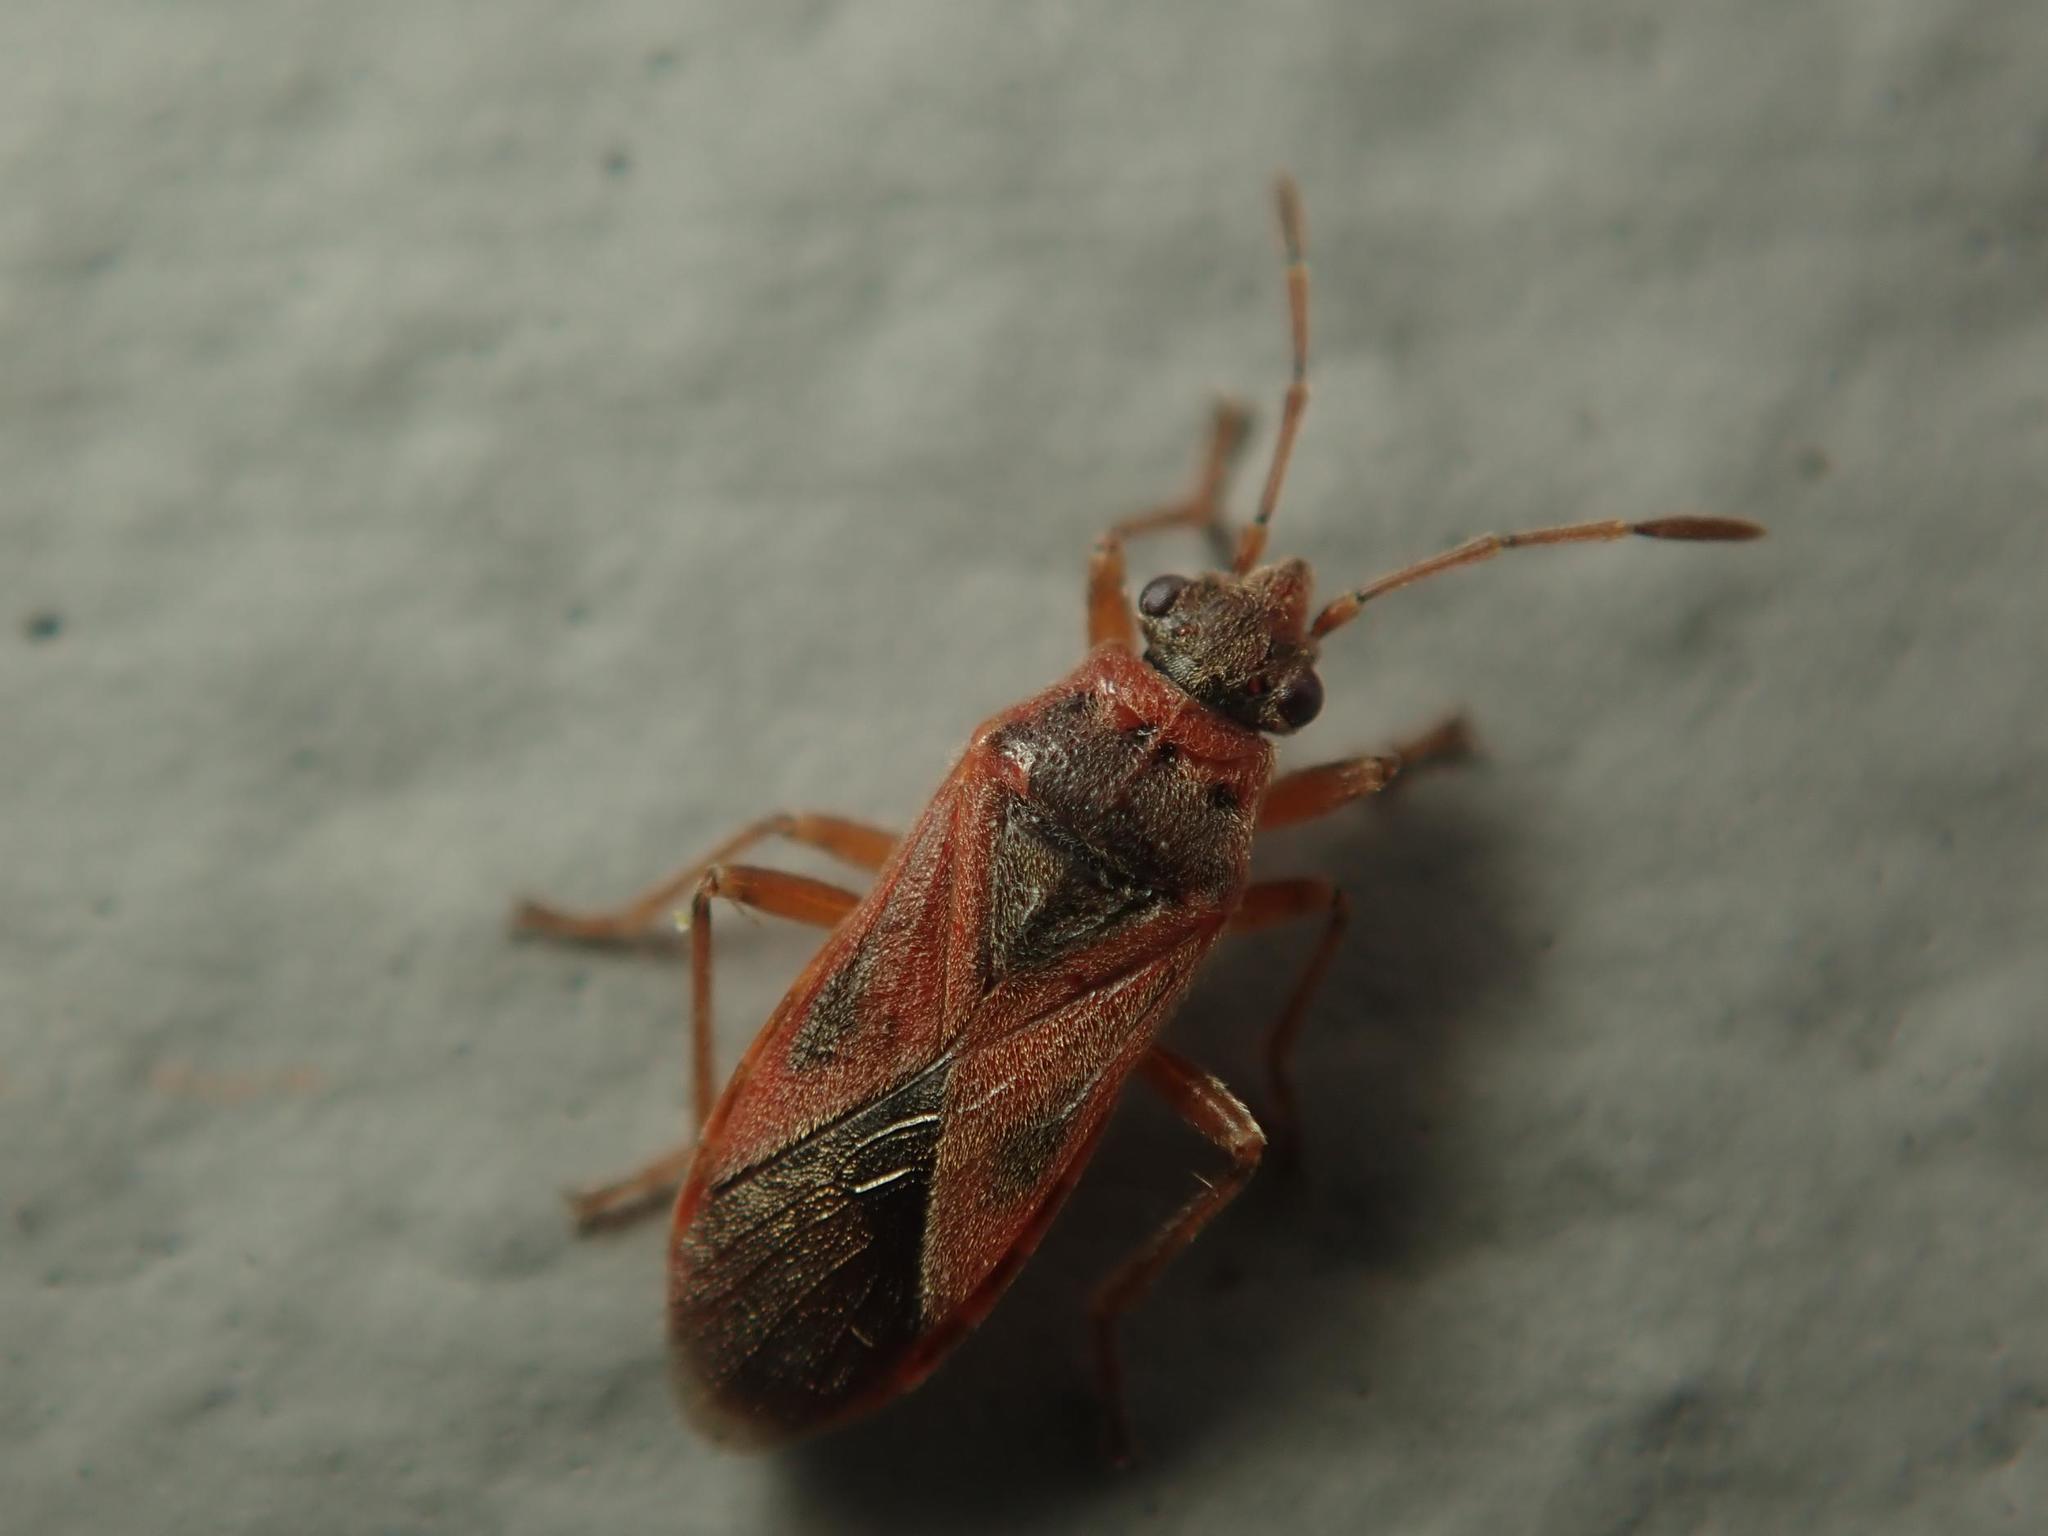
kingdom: Animalia
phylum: Arthropoda
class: Insecta
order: Hemiptera
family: Lygaeidae
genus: Arocatus
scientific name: Arocatus roeselii
